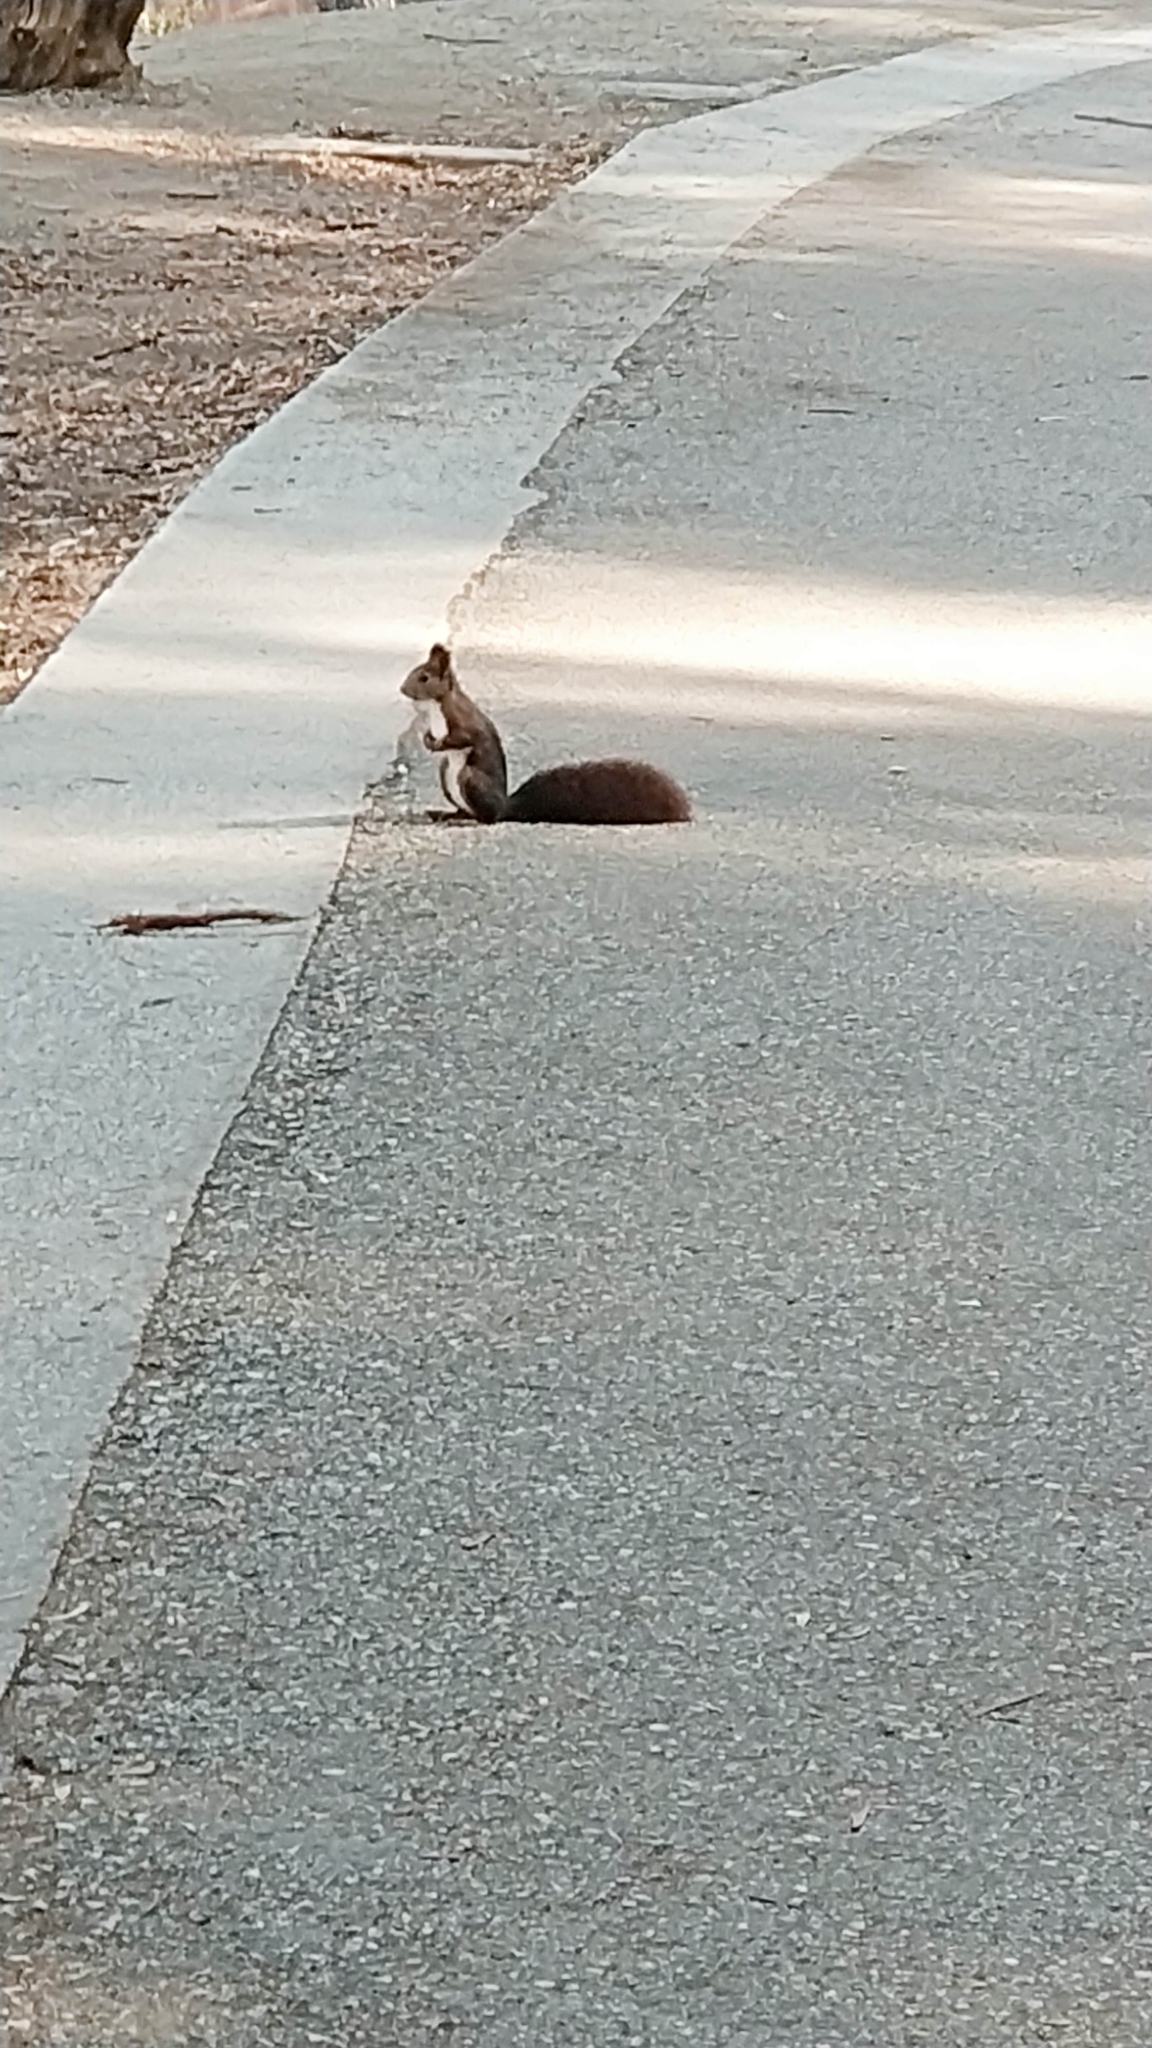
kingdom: Animalia
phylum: Chordata
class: Mammalia
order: Rodentia
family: Sciuridae
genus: Sciurus
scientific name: Sciurus vulgaris
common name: Eurasian red squirrel
